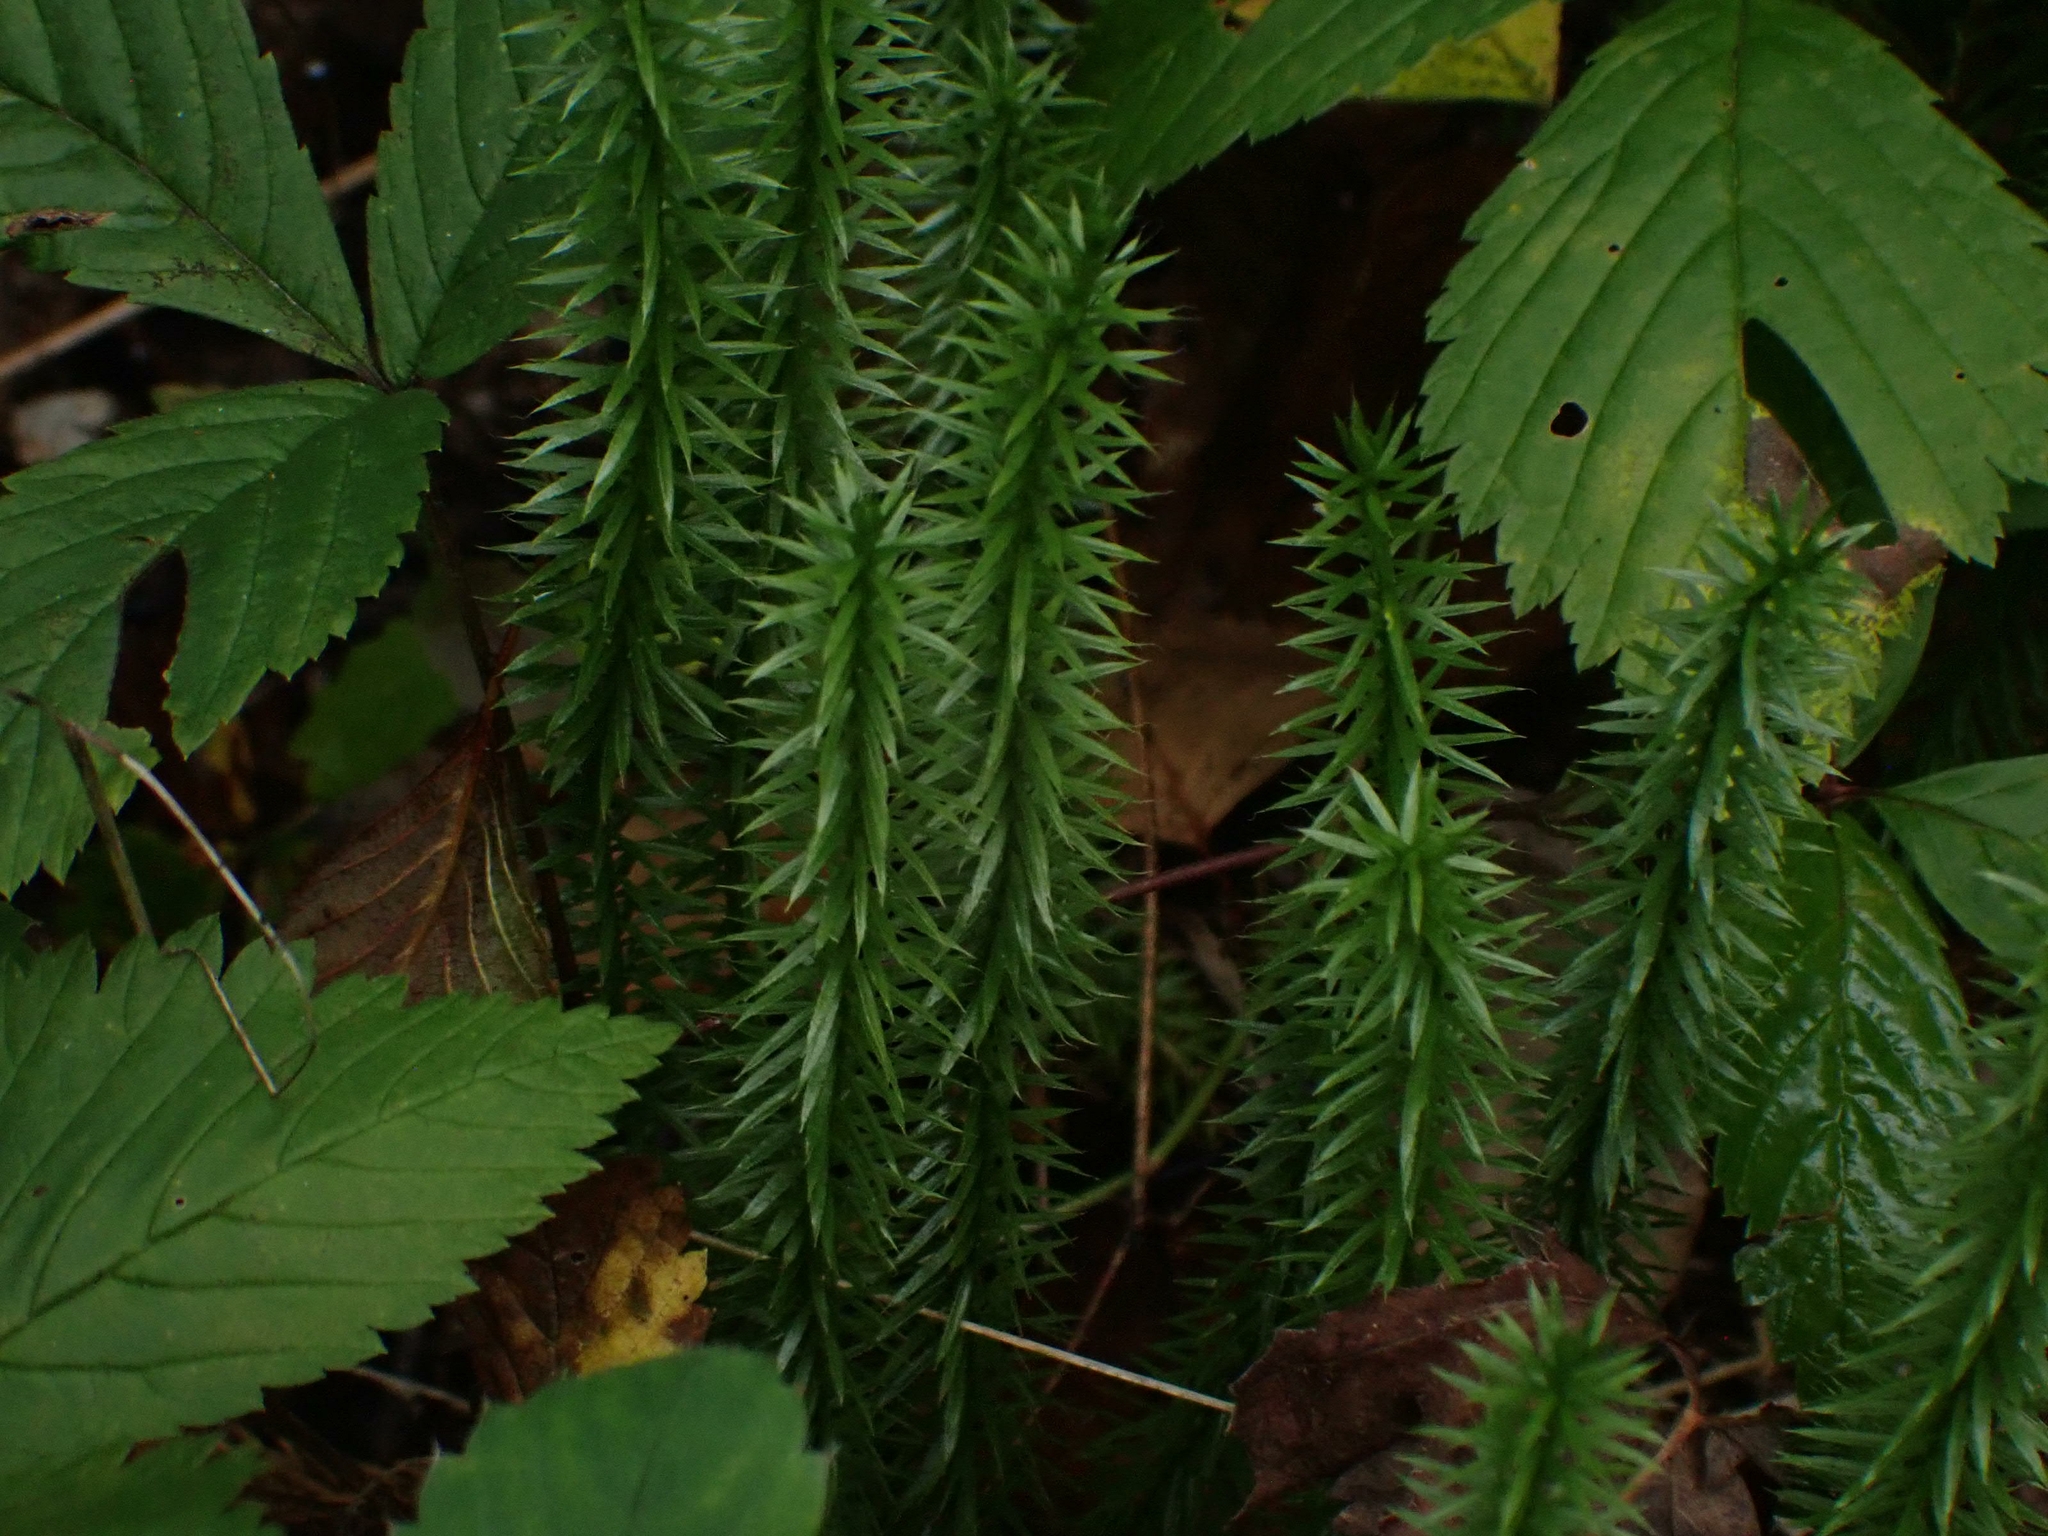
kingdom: Plantae
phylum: Tracheophyta
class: Lycopodiopsida
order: Lycopodiales
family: Lycopodiaceae
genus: Spinulum
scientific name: Spinulum annotinum
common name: Interrupted club-moss
